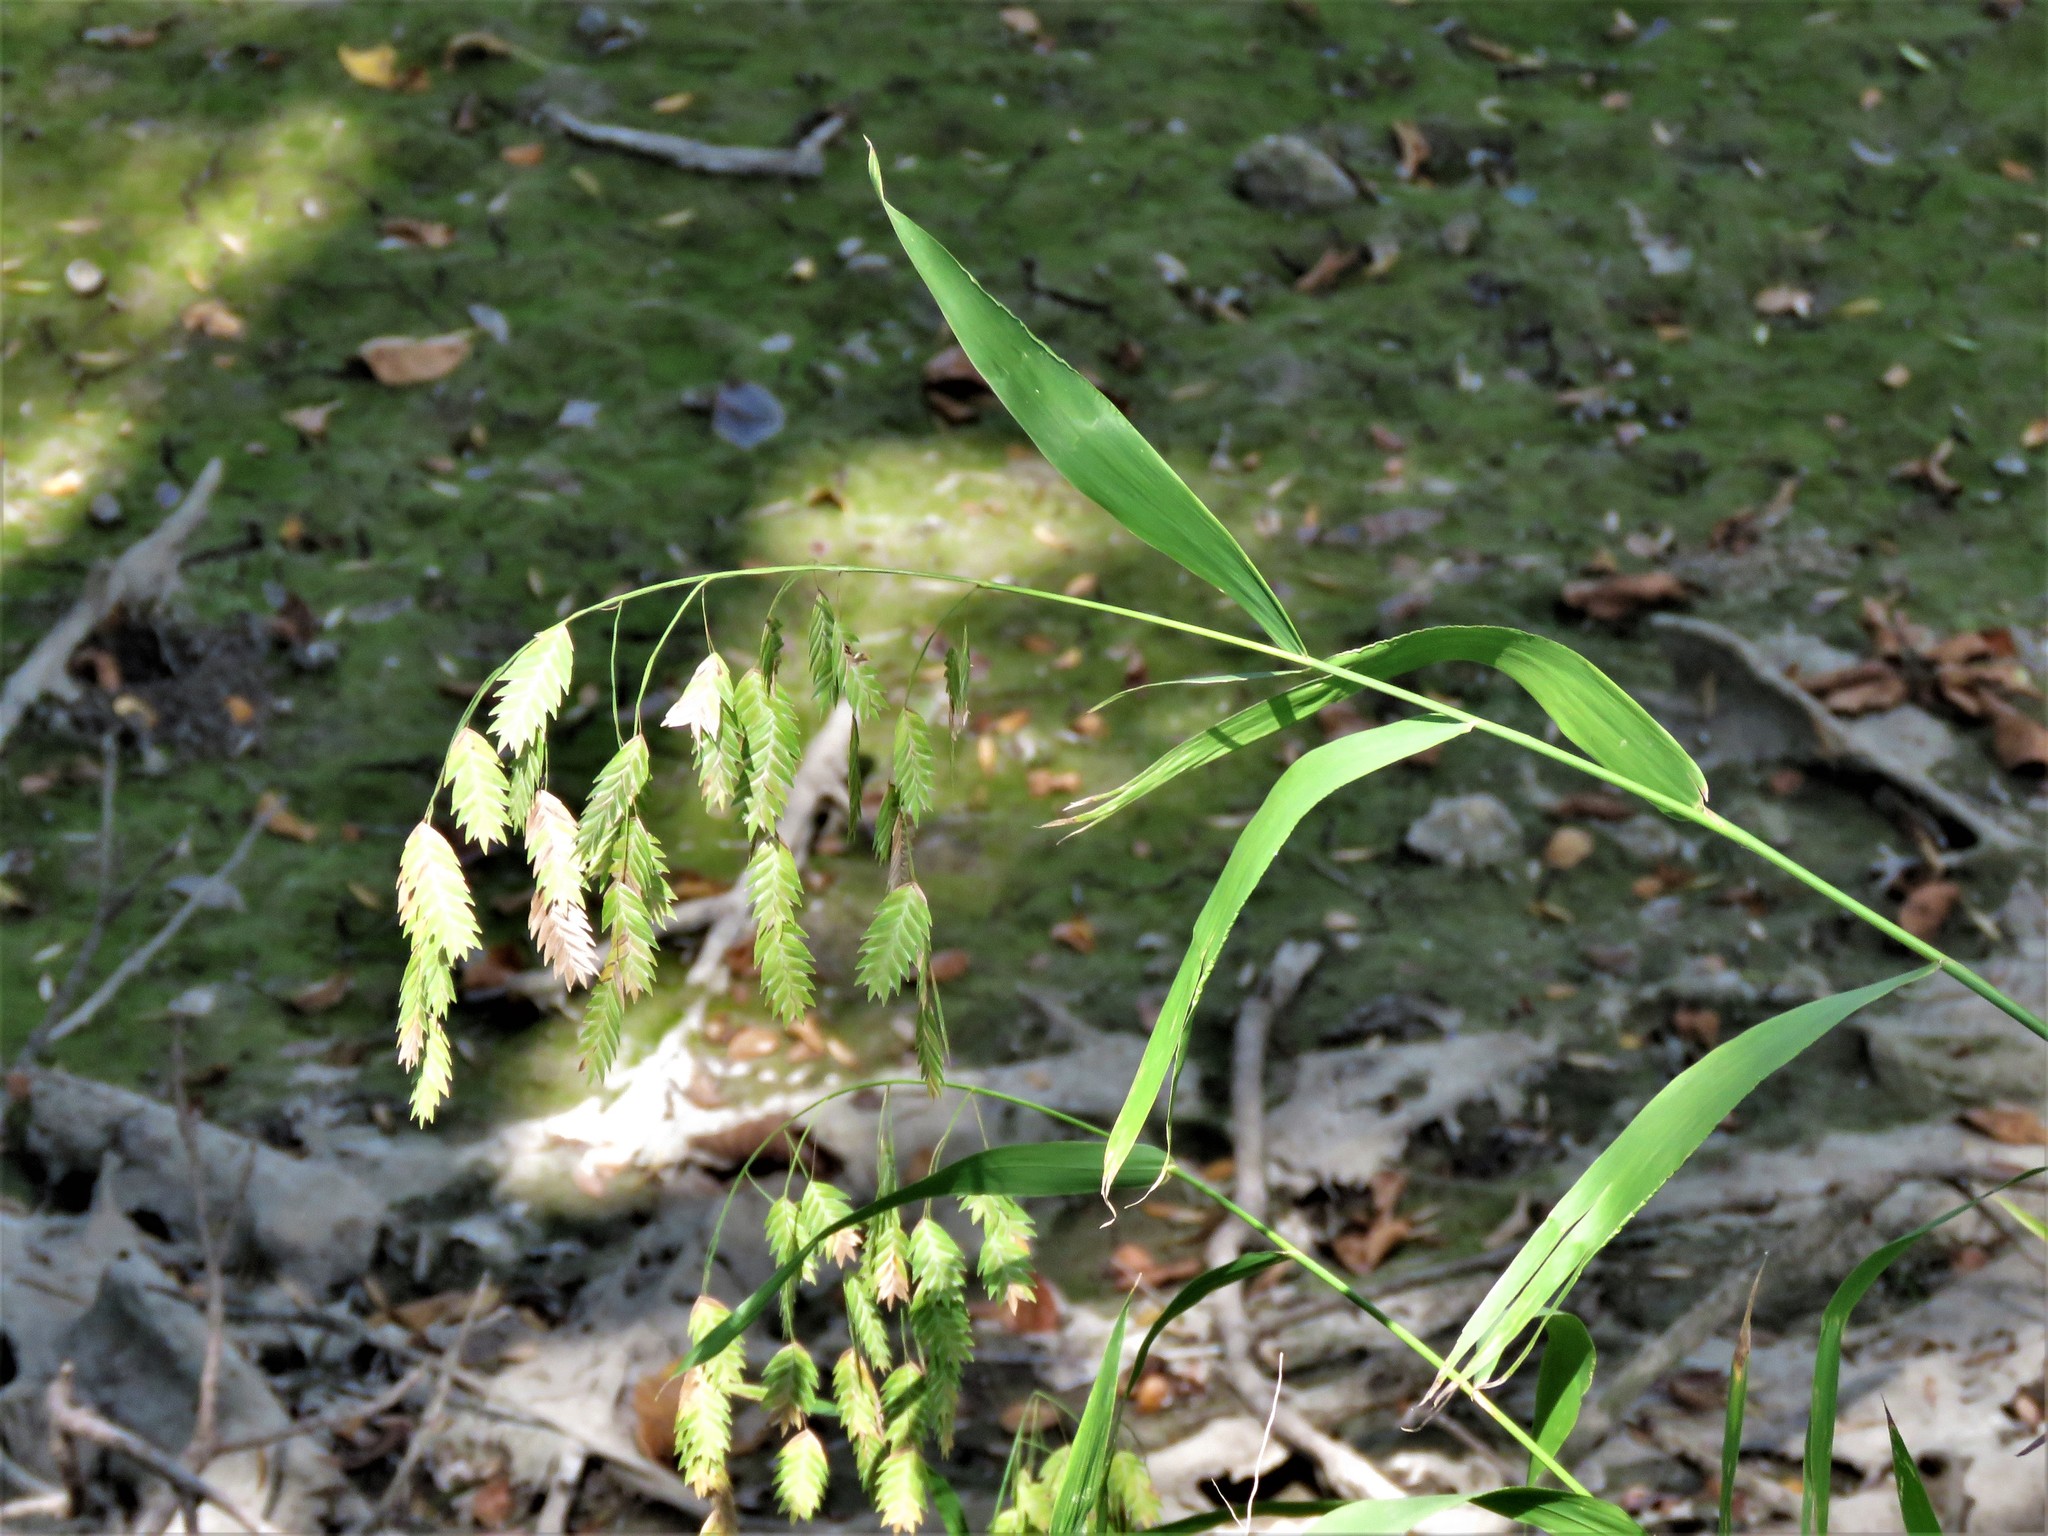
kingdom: Plantae
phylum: Tracheophyta
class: Liliopsida
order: Poales
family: Poaceae
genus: Chasmanthium
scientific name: Chasmanthium latifolium
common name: Broad-leaved chasmanthium
